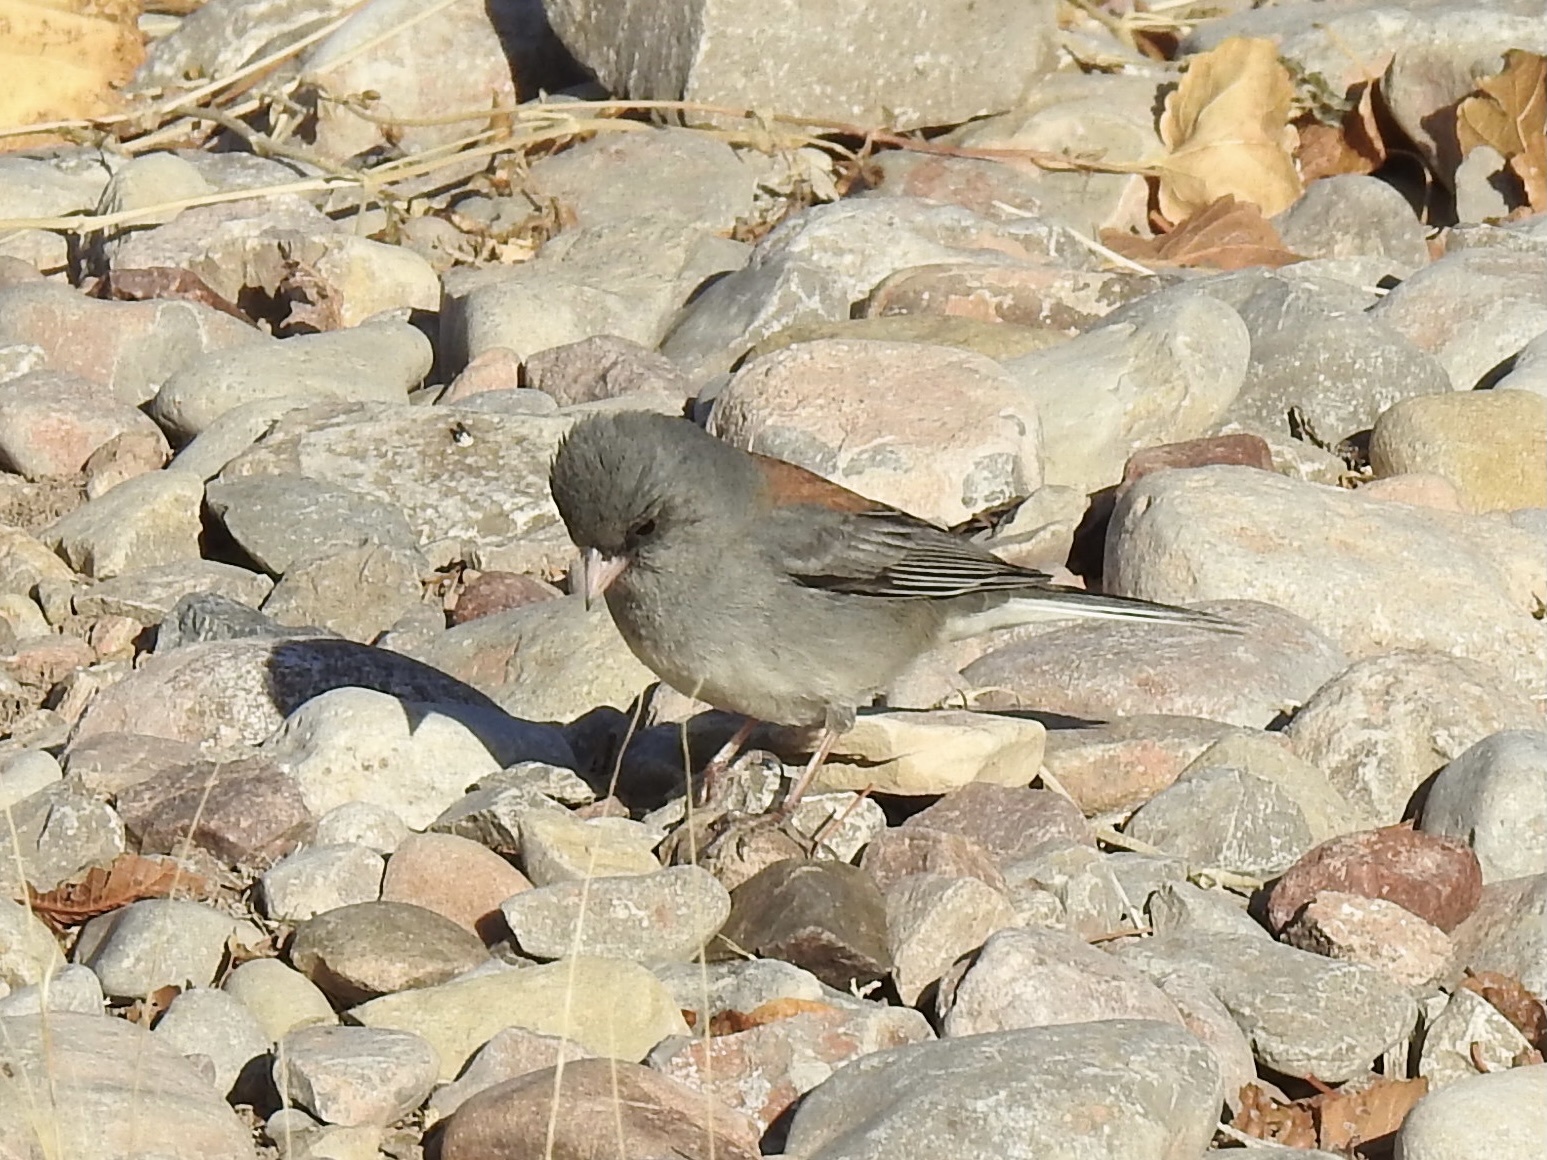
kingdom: Animalia
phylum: Chordata
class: Aves
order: Passeriformes
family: Passerellidae
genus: Junco
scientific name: Junco hyemalis
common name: Dark-eyed junco
